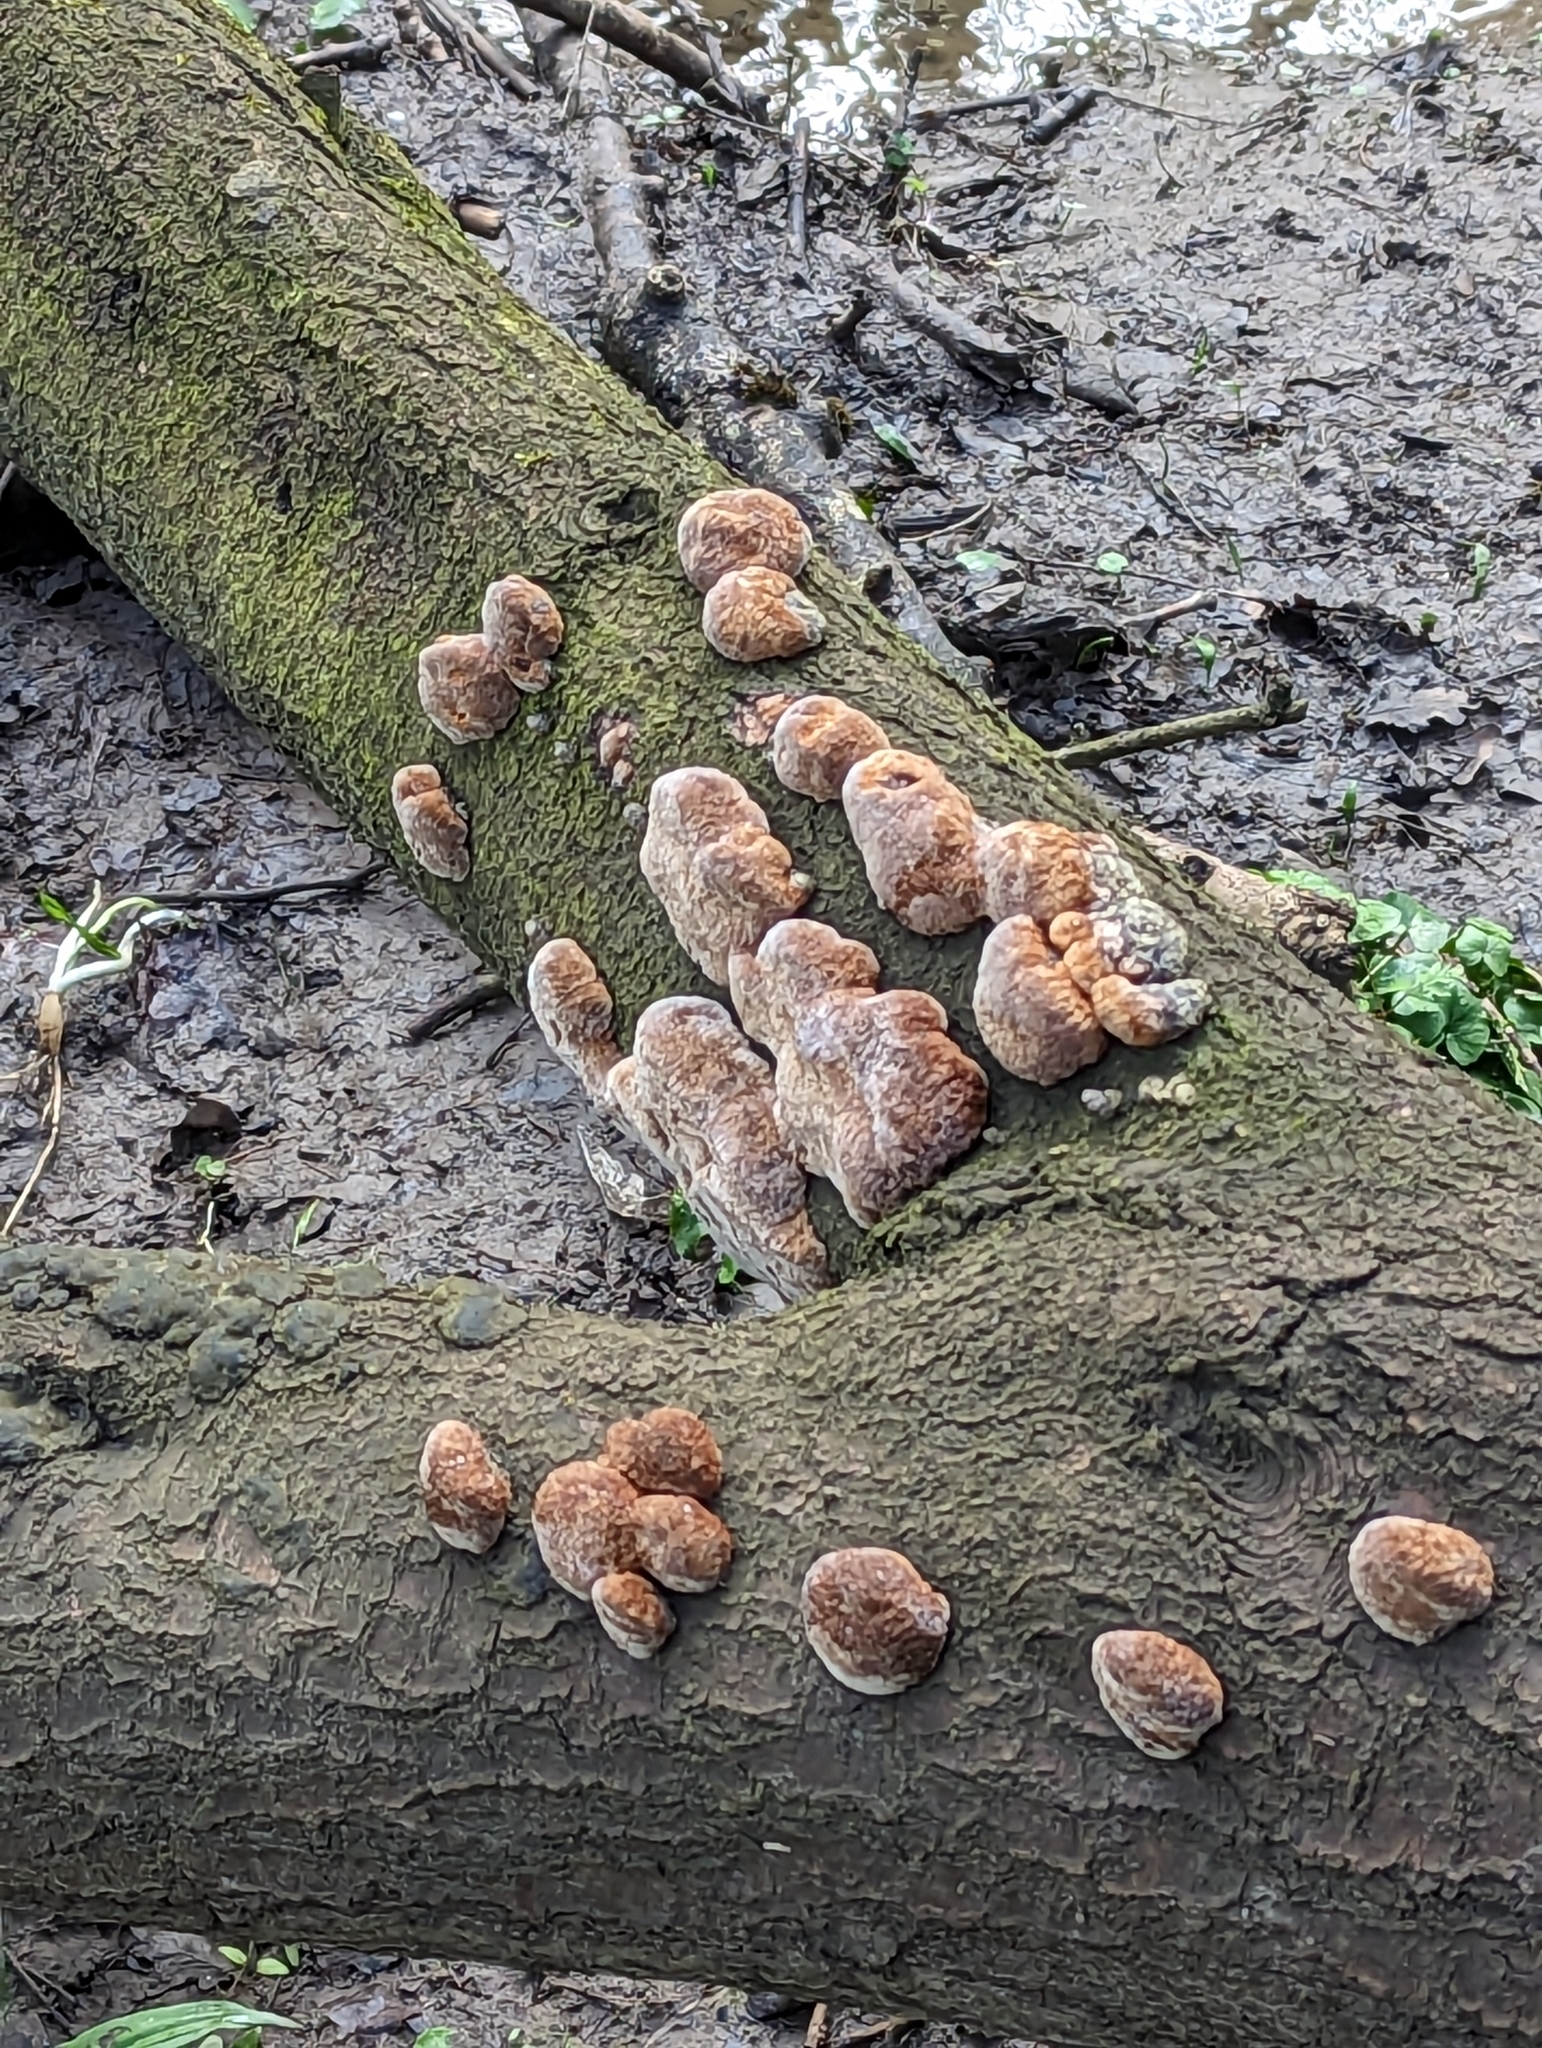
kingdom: Fungi
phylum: Basidiomycota
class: Agaricomycetes
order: Hymenochaetales
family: Hymenochaetaceae
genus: Phellinus
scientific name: Phellinus pomaceus
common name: Cushion bracket
